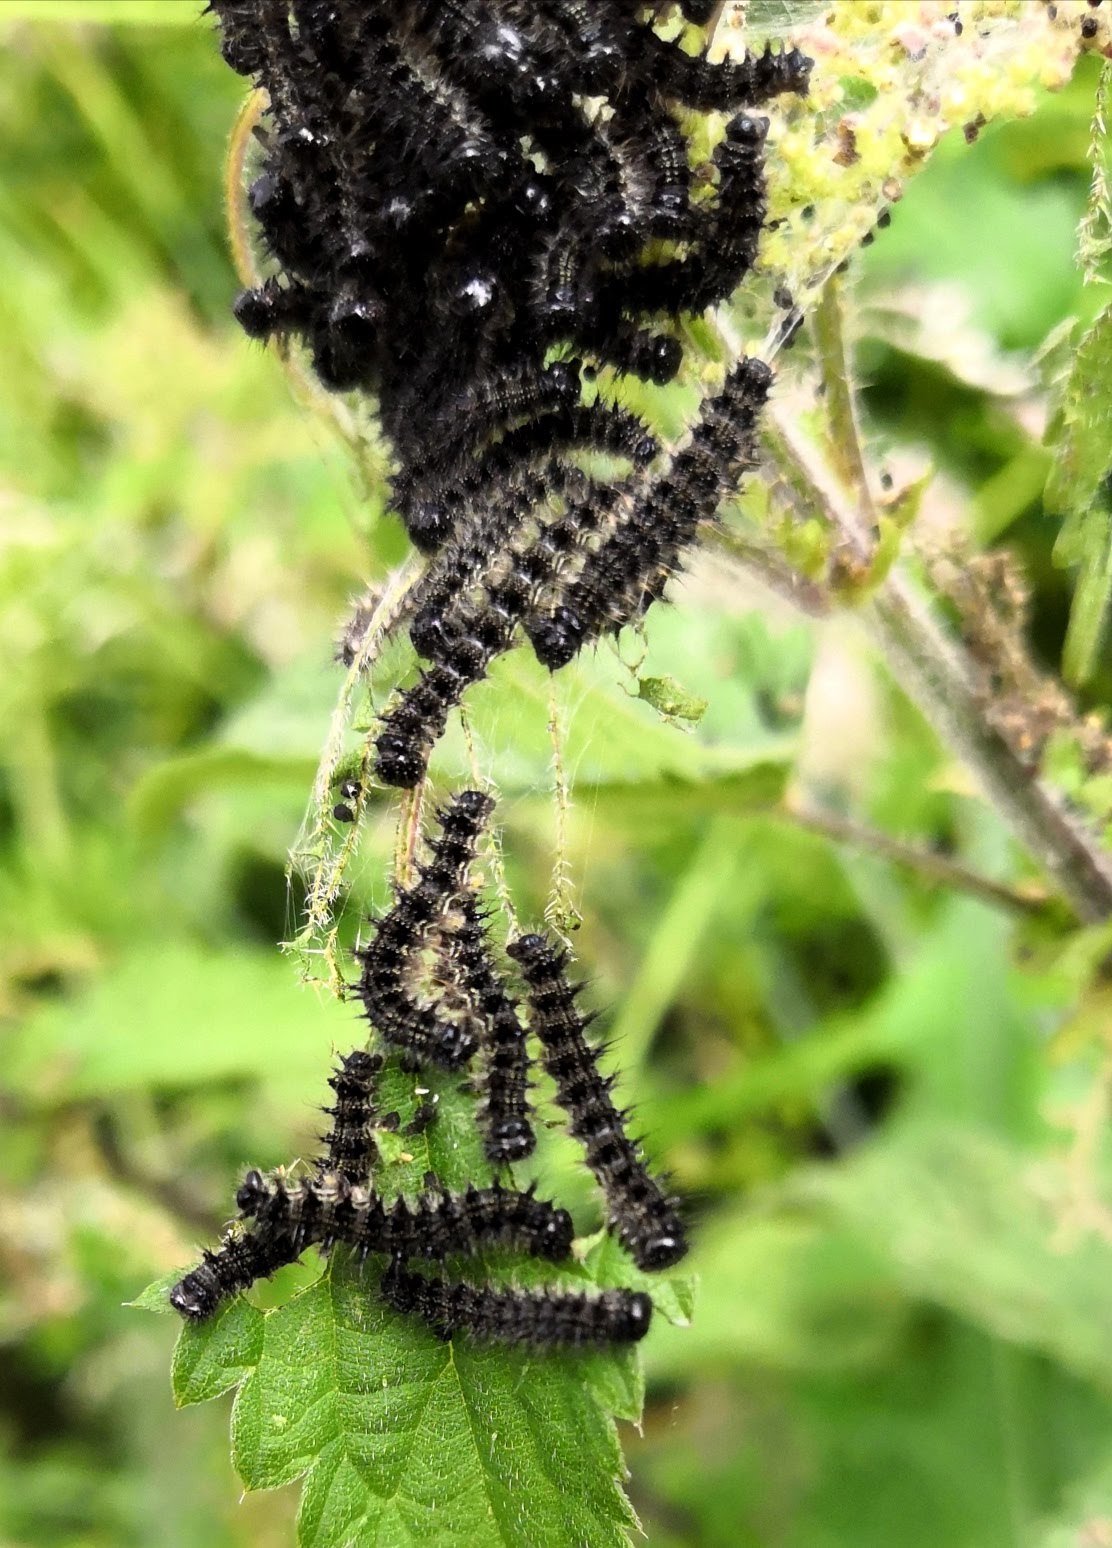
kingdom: Animalia
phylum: Arthropoda
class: Insecta
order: Lepidoptera
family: Nymphalidae
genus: Aglais
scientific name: Aglais urticae
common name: Small tortoiseshell
